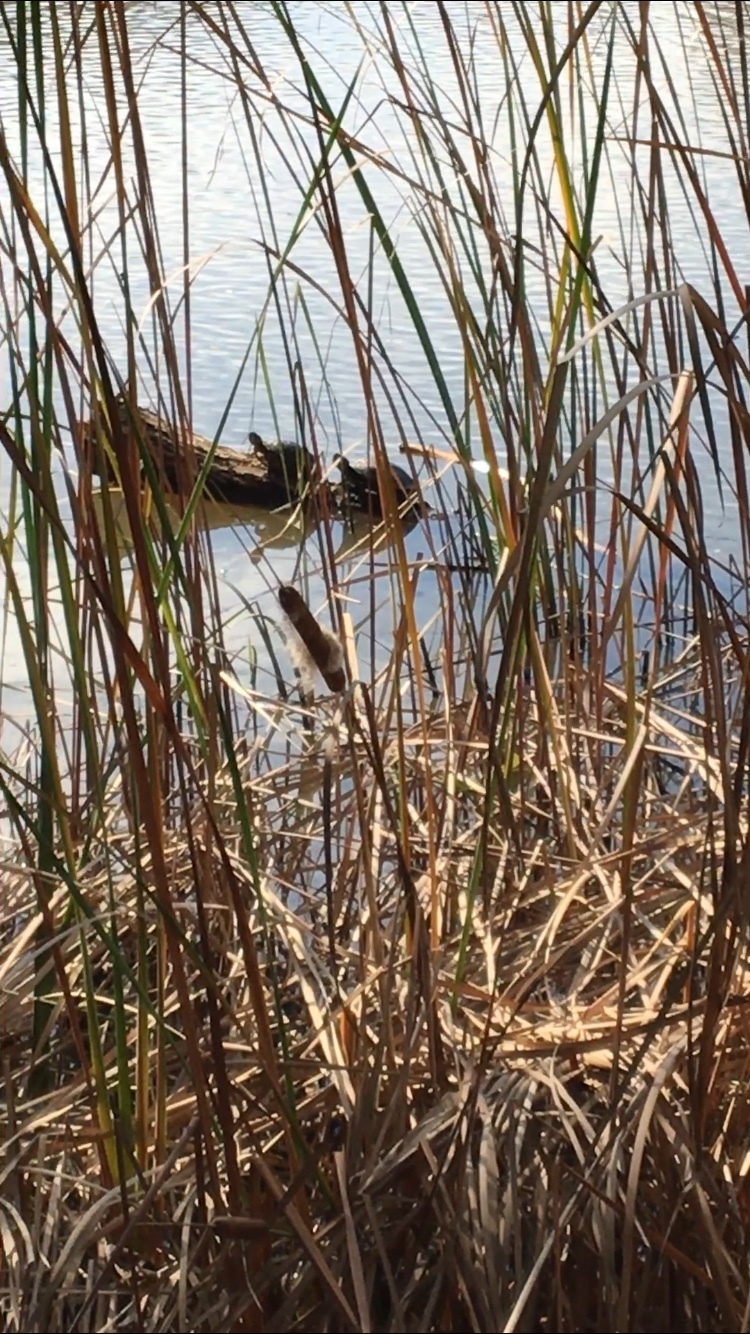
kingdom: Animalia
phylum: Chordata
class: Testudines
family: Emydidae
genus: Trachemys
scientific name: Trachemys scripta
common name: Slider
